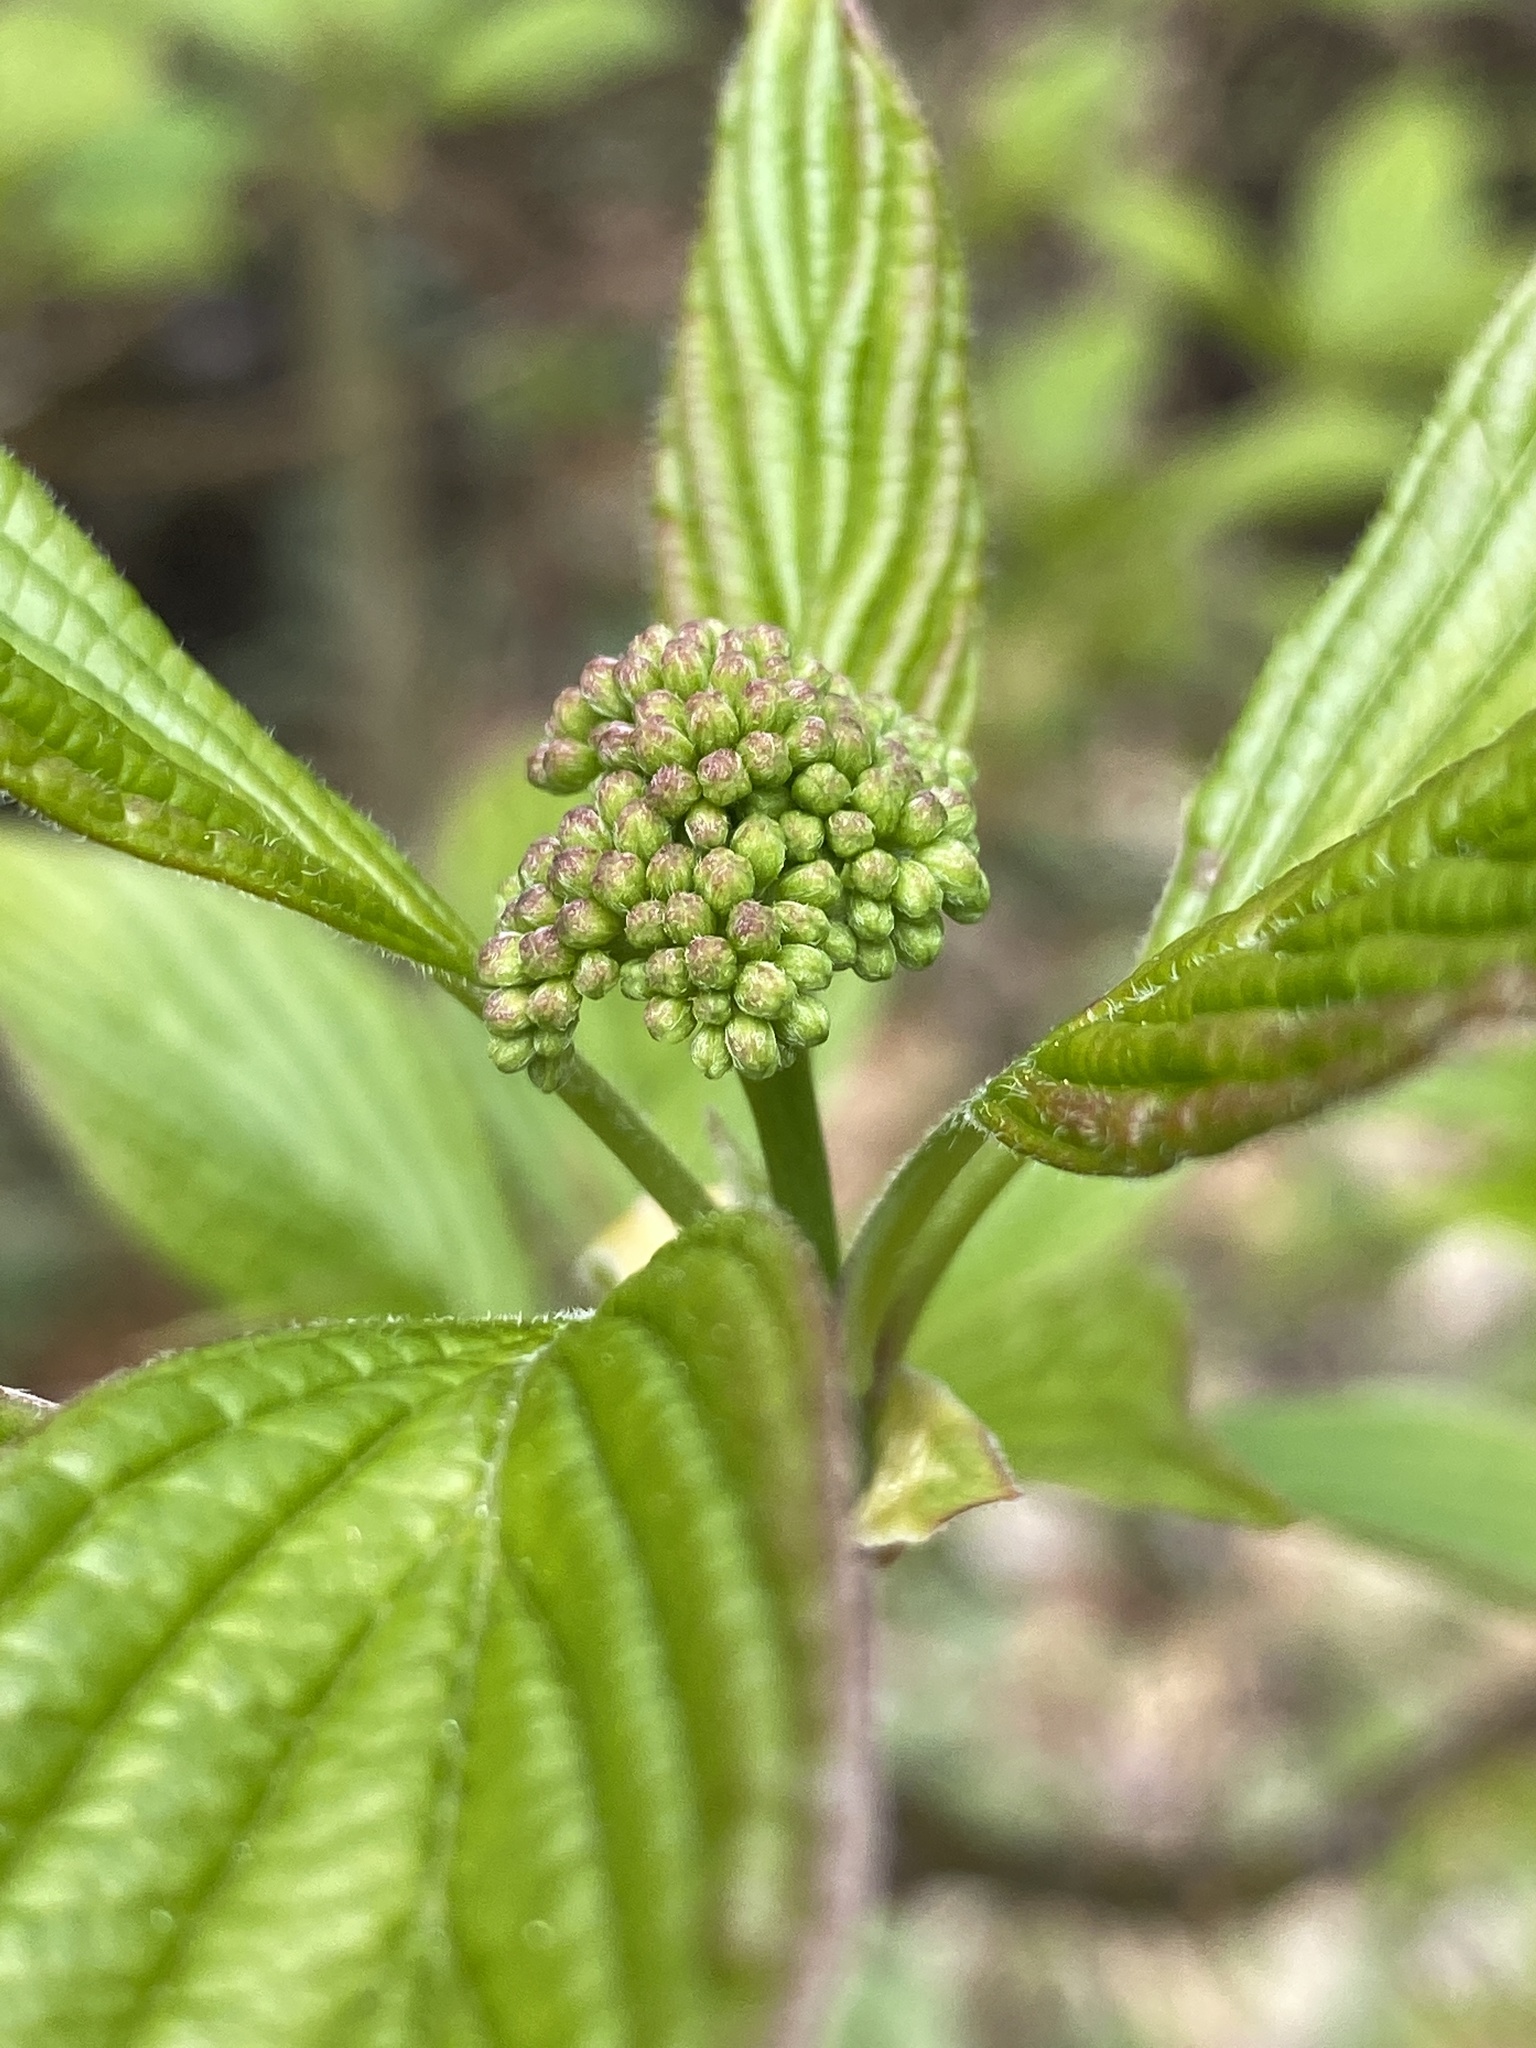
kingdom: Plantae
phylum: Tracheophyta
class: Magnoliopsida
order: Cornales
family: Cornaceae
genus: Cornus
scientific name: Cornus alternifolia
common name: Pagoda dogwood
